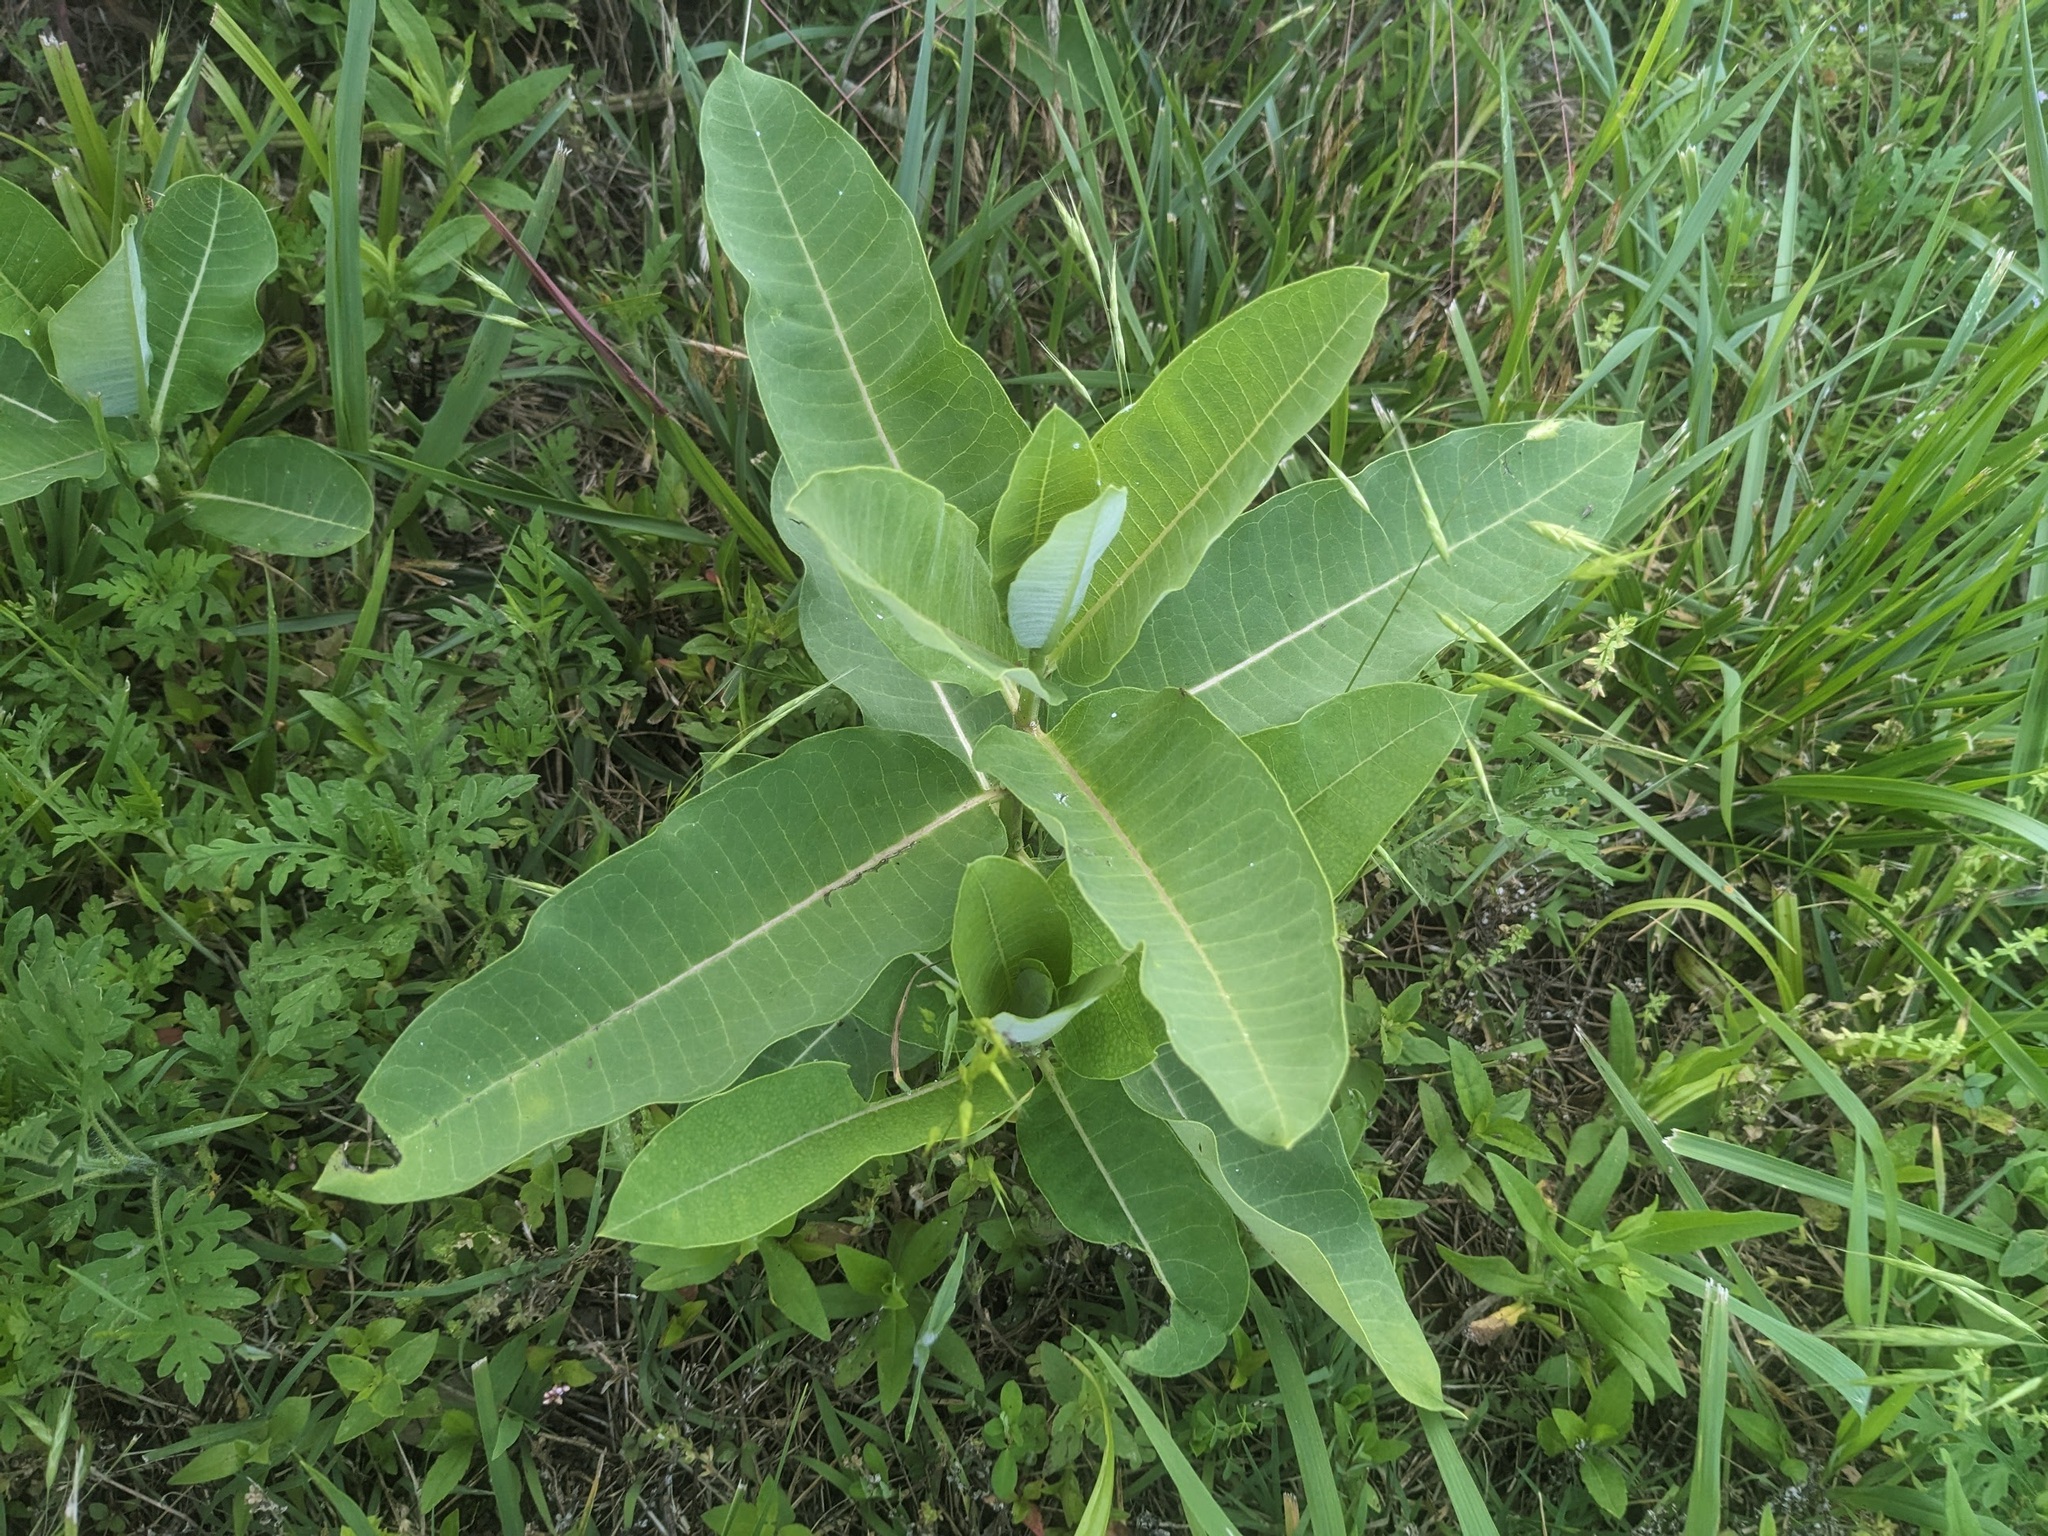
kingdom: Plantae
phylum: Tracheophyta
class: Magnoliopsida
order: Gentianales
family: Apocynaceae
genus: Asclepias
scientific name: Asclepias syriaca
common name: Common milkweed
